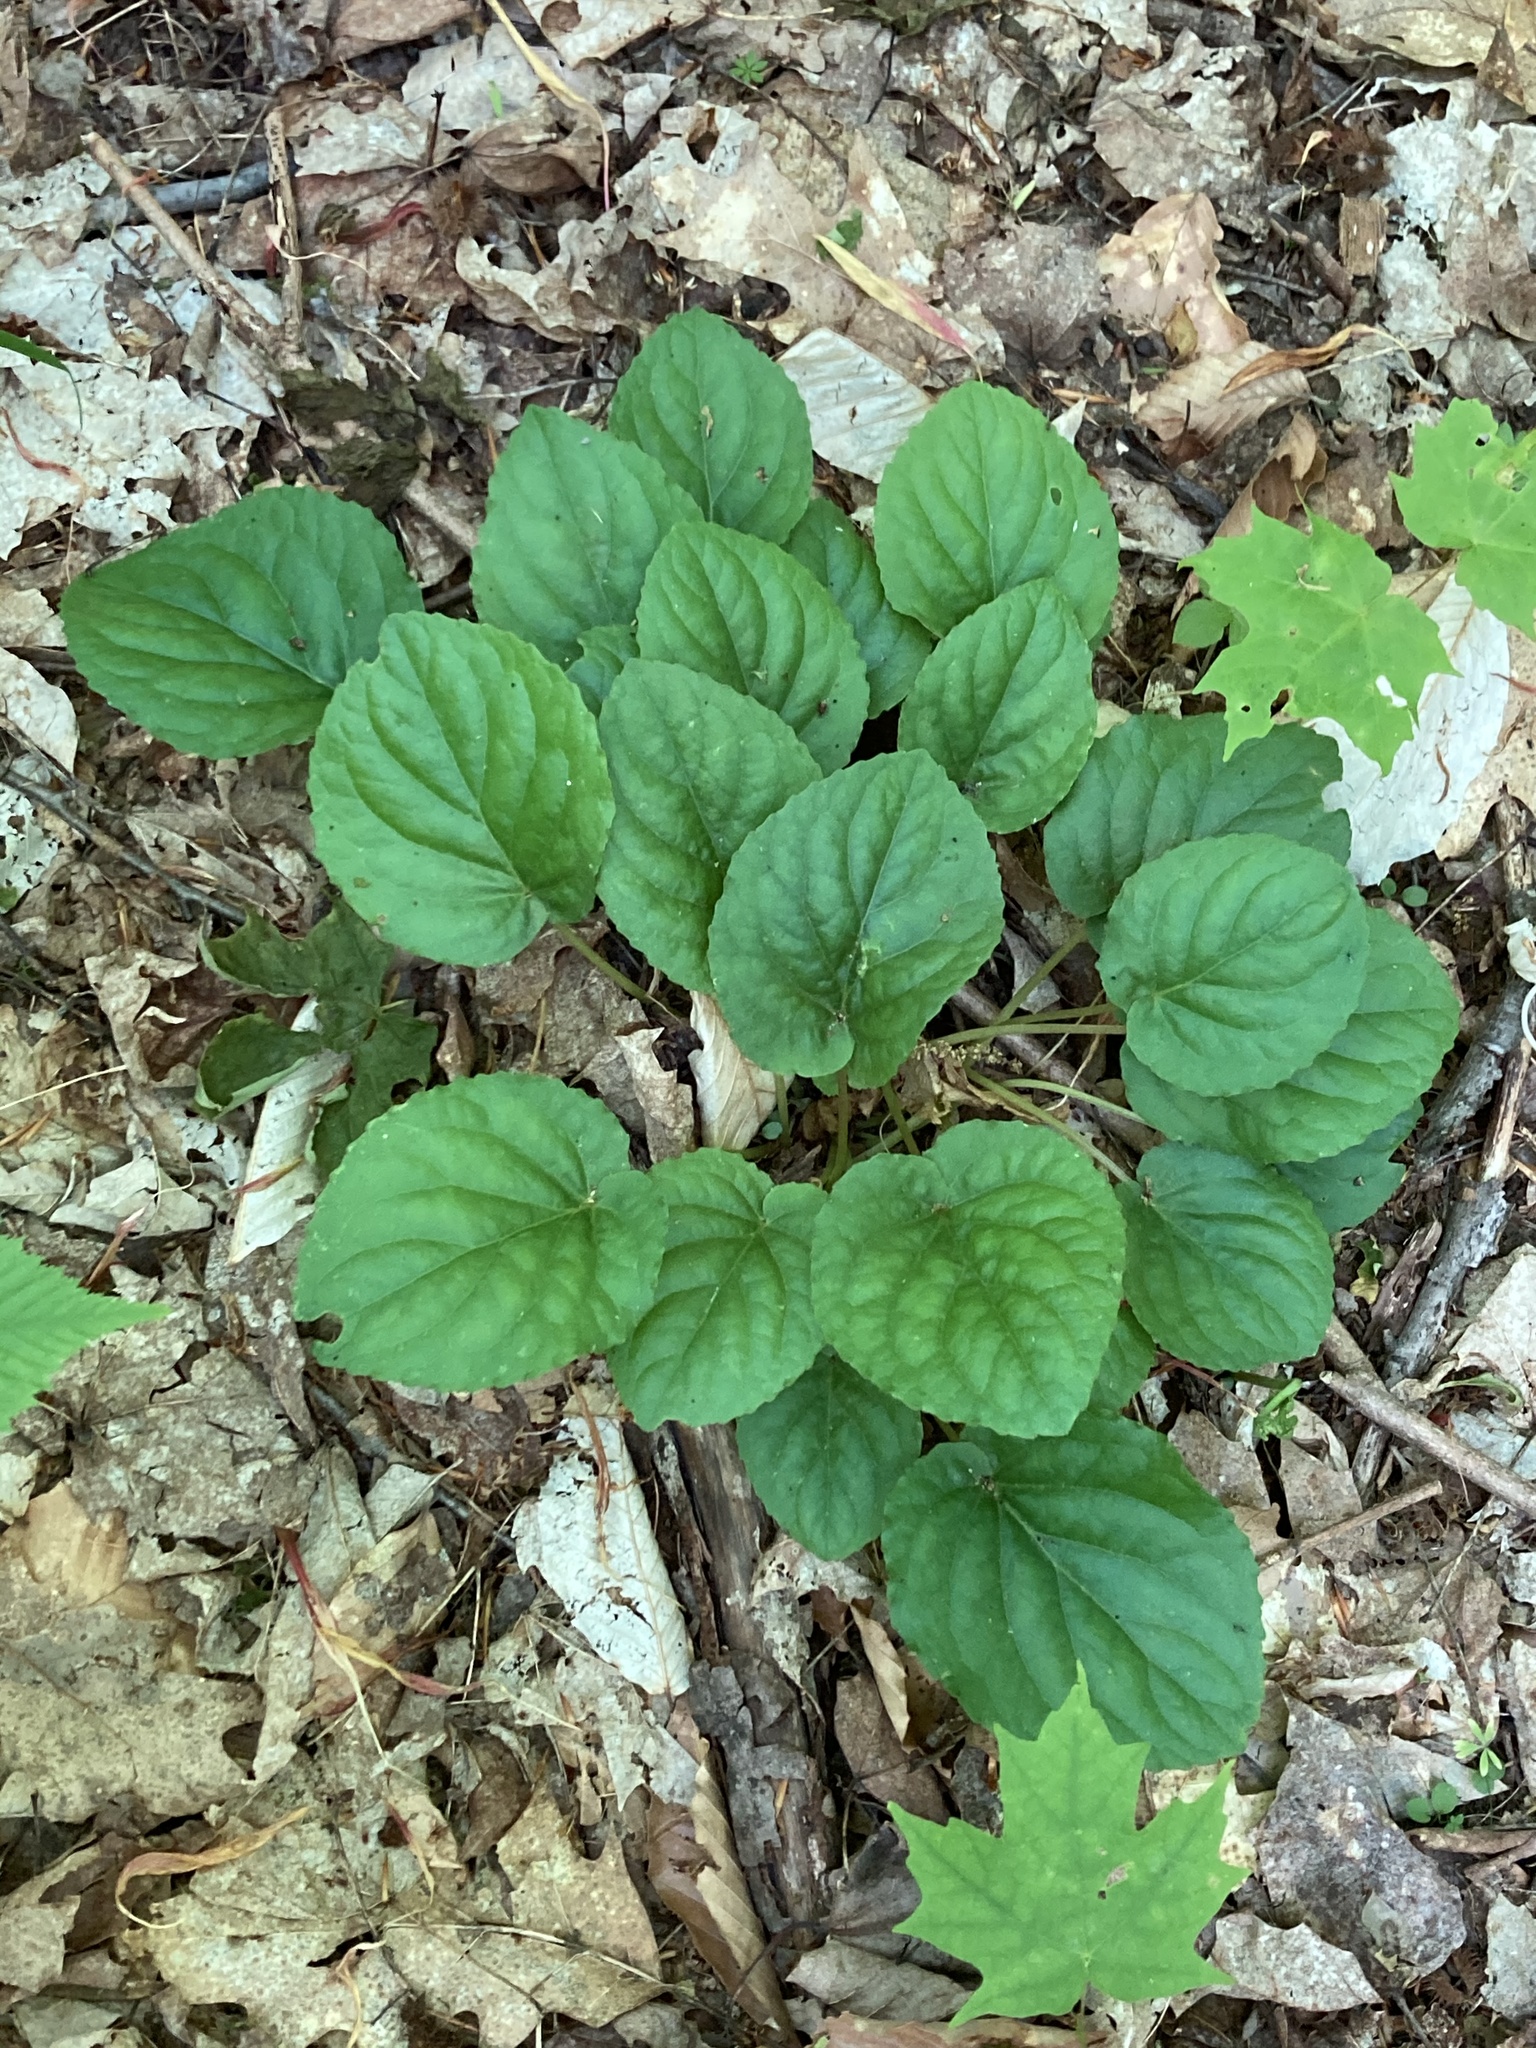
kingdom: Plantae
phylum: Tracheophyta
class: Magnoliopsida
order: Malpighiales
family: Violaceae
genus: Viola
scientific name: Viola rotundifolia
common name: Early yellow violet
